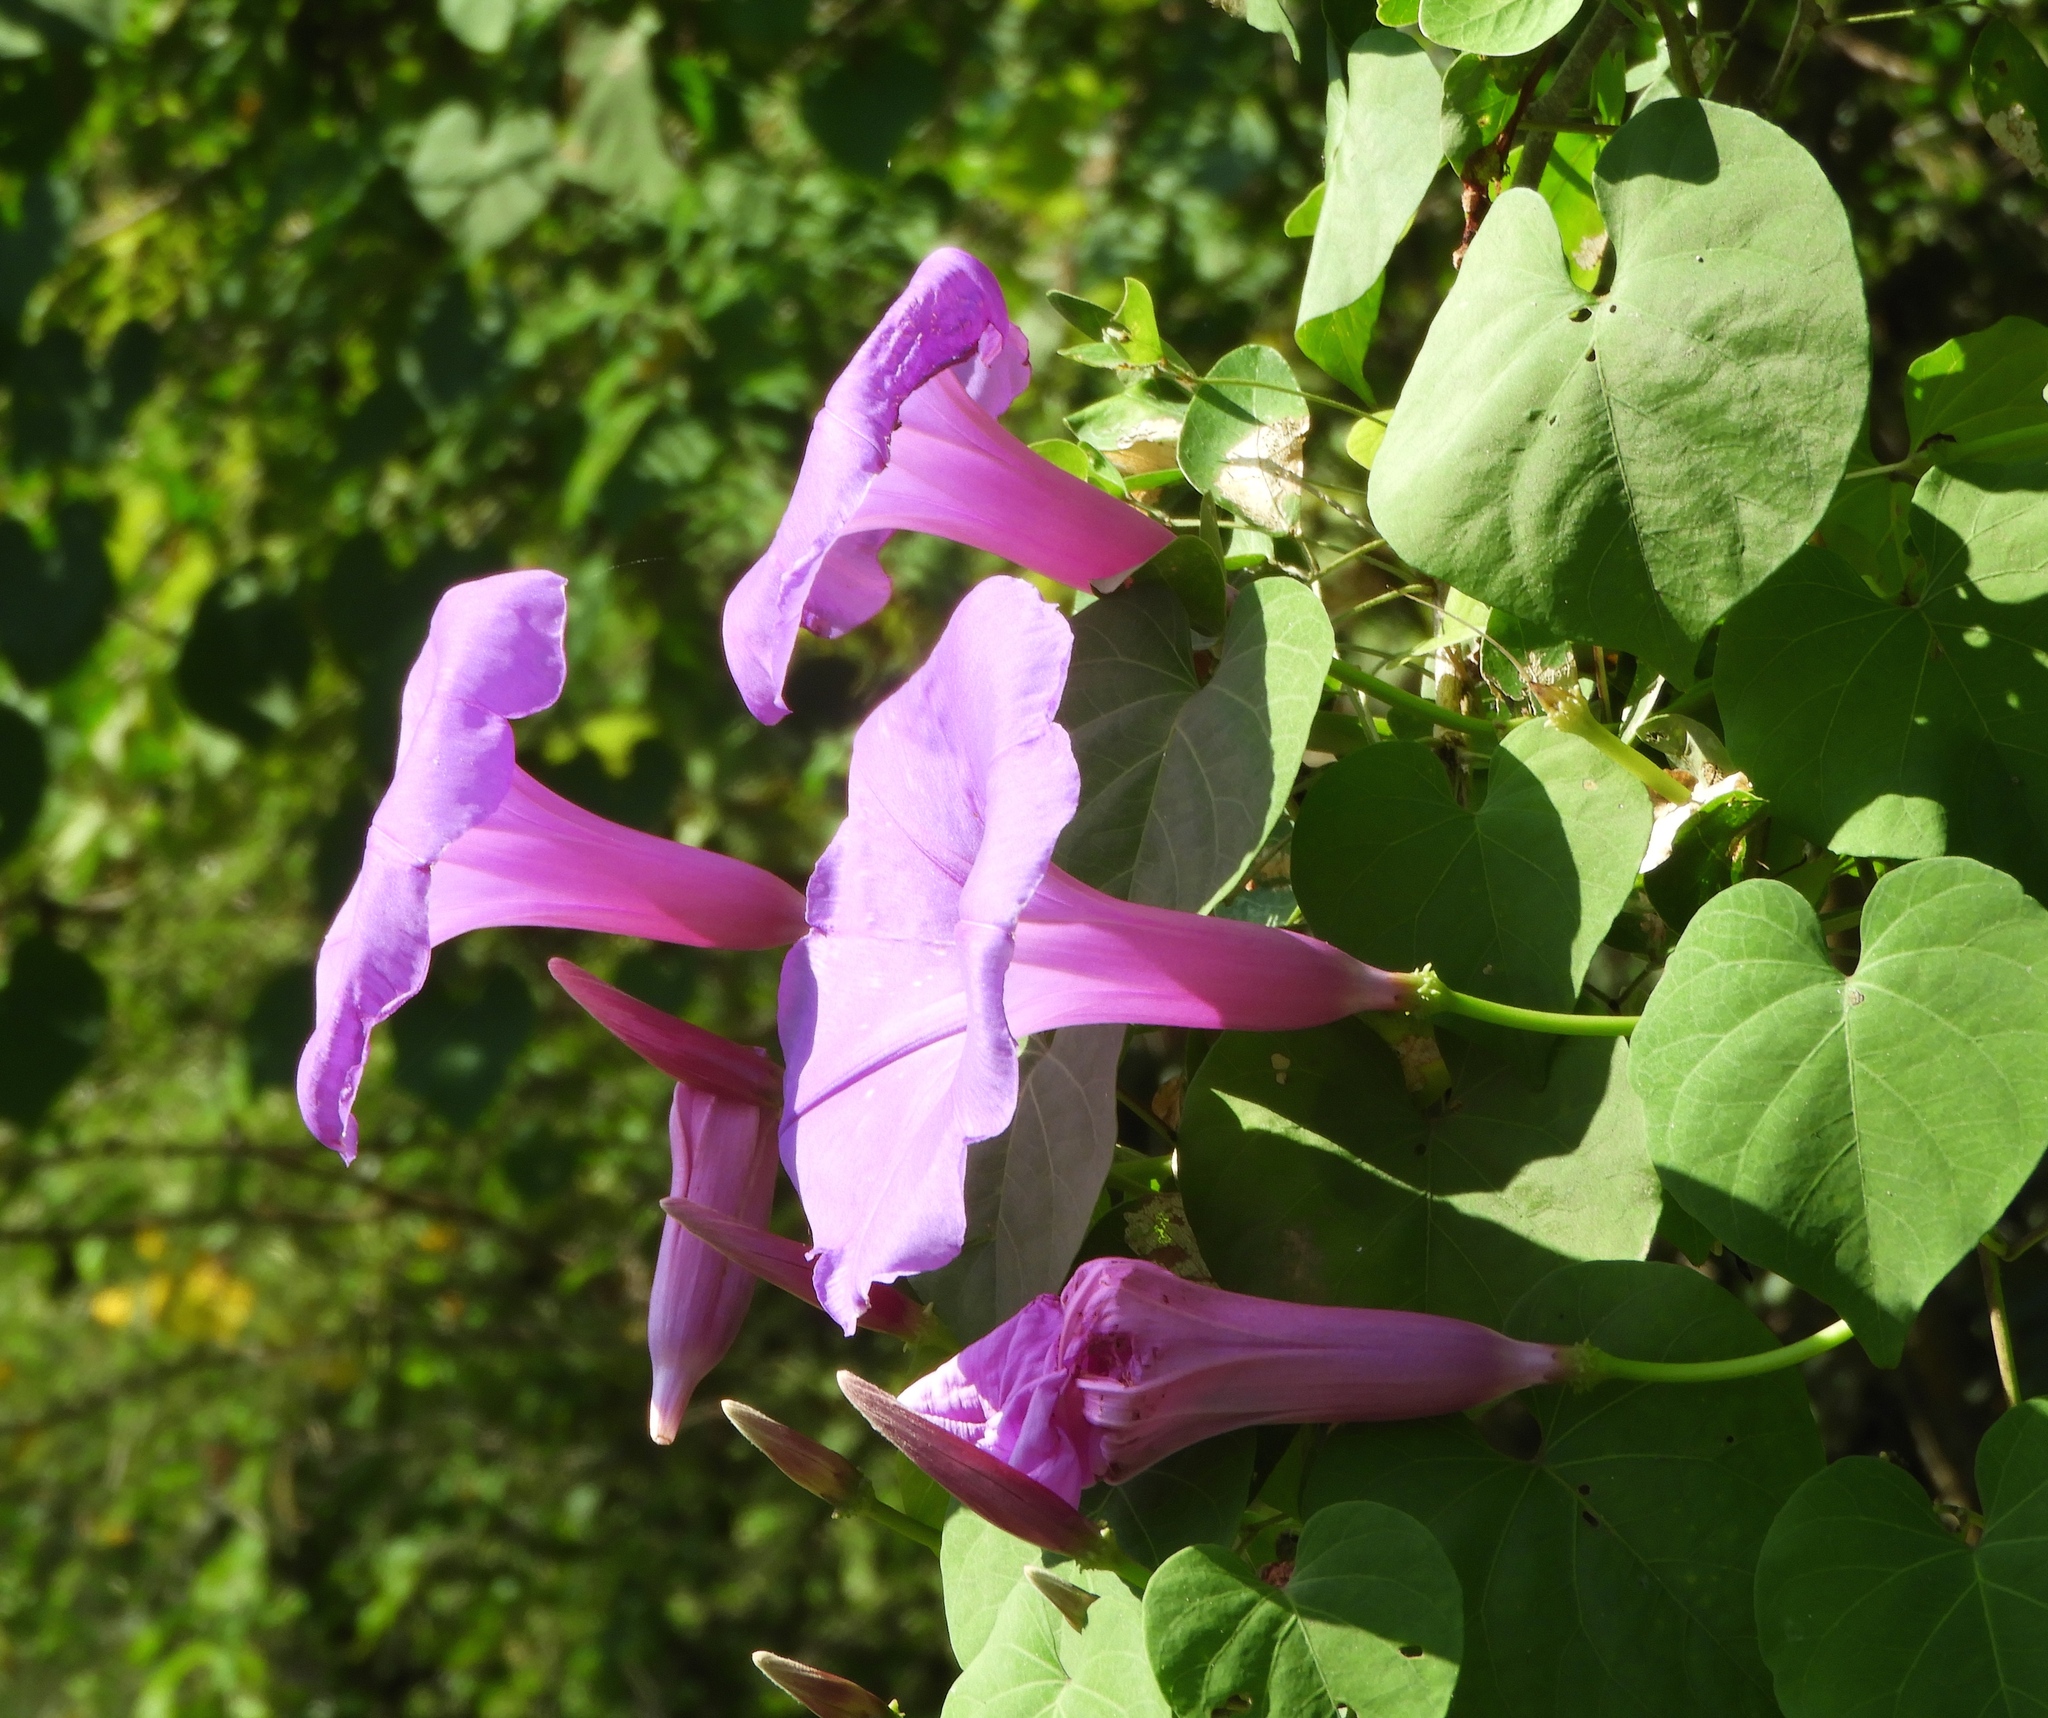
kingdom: Plantae
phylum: Tracheophyta
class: Magnoliopsida
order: Solanales
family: Convolvulaceae
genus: Ipomoea
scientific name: Ipomoea pedicellaris
